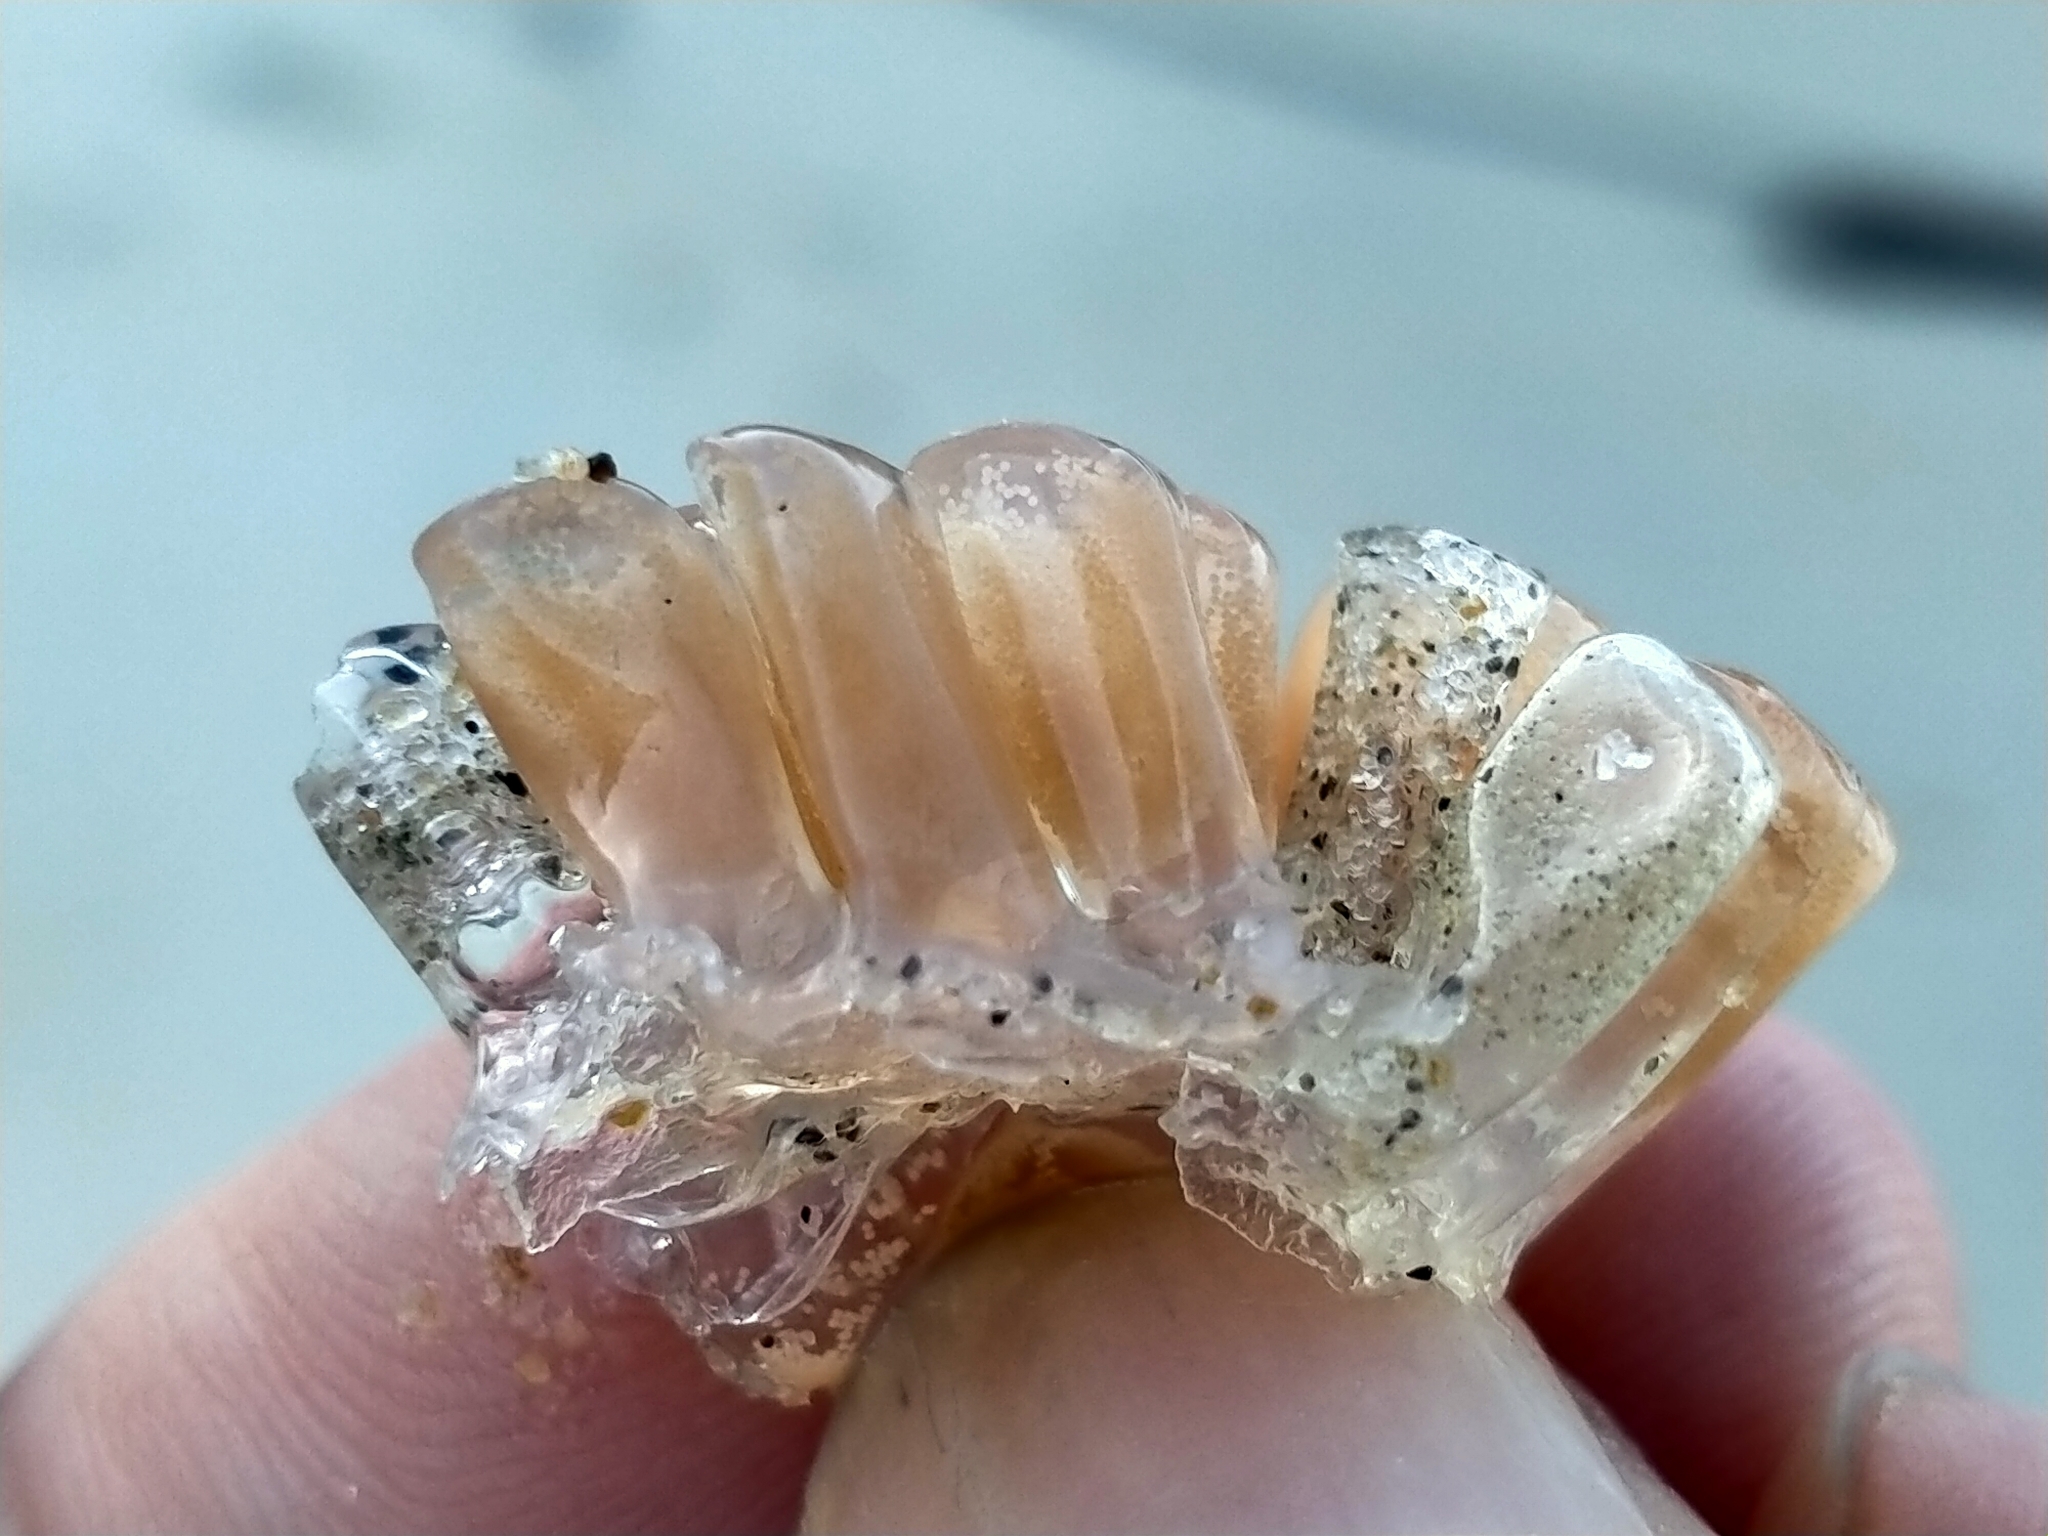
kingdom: Animalia
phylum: Mollusca
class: Gastropoda
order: Littorinimorpha
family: Ranellidae
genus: Ranella
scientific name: Ranella australasia
